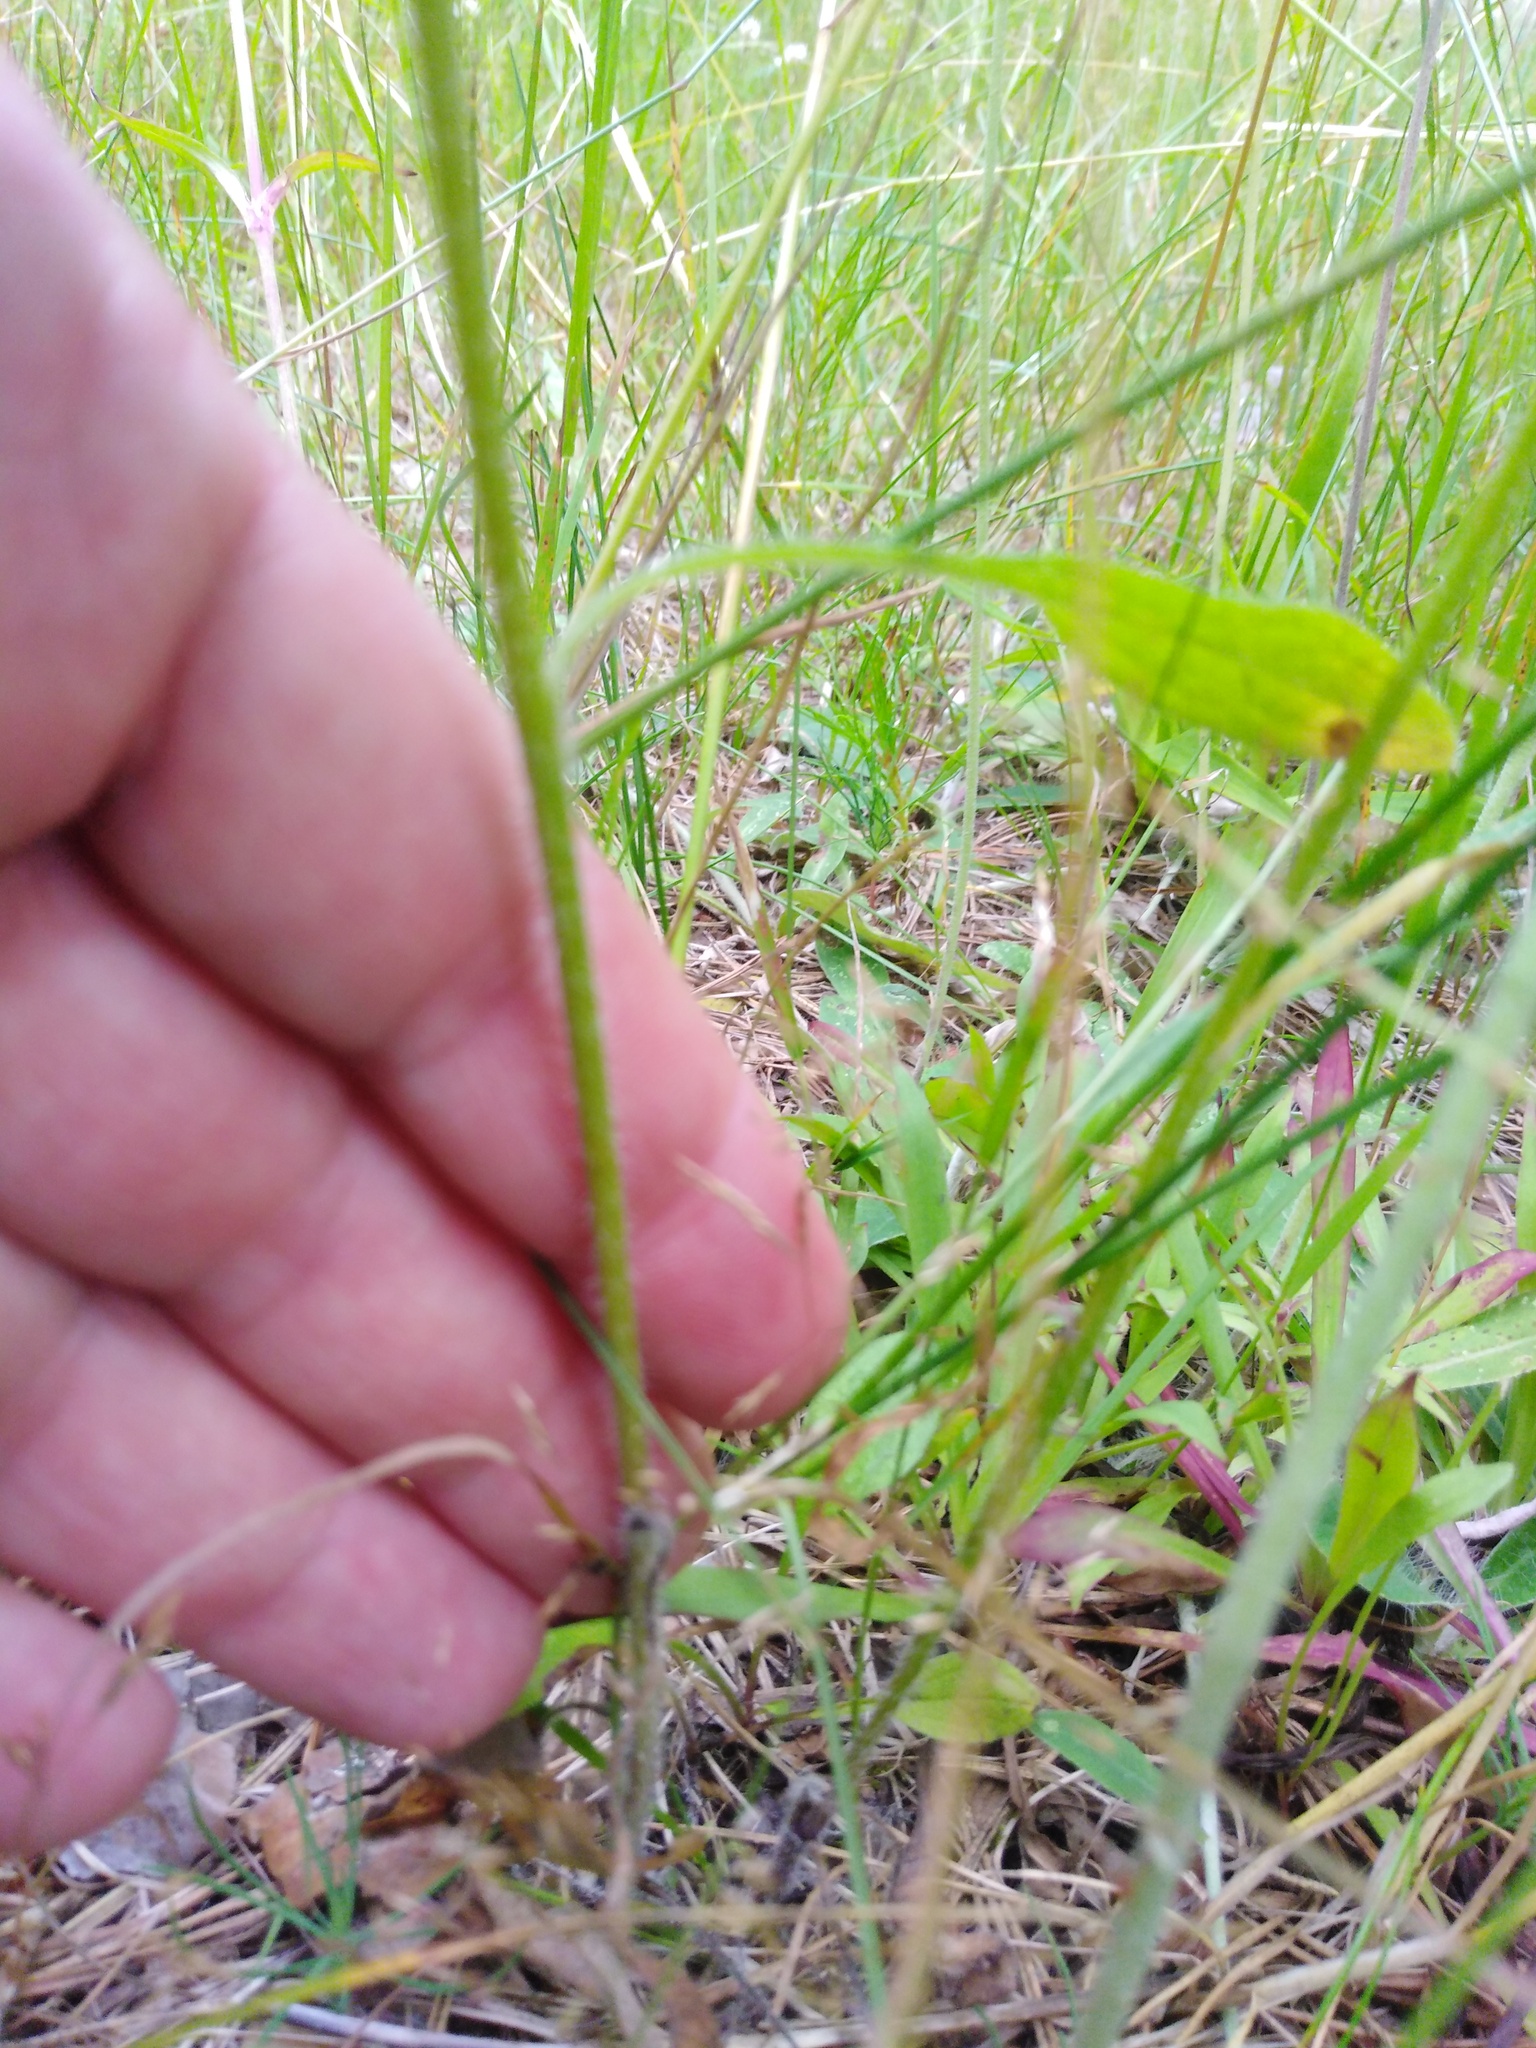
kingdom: Plantae
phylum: Tracheophyta
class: Magnoliopsida
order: Asterales
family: Asteraceae
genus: Erigeron
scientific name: Erigeron annuus
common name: Tall fleabane
